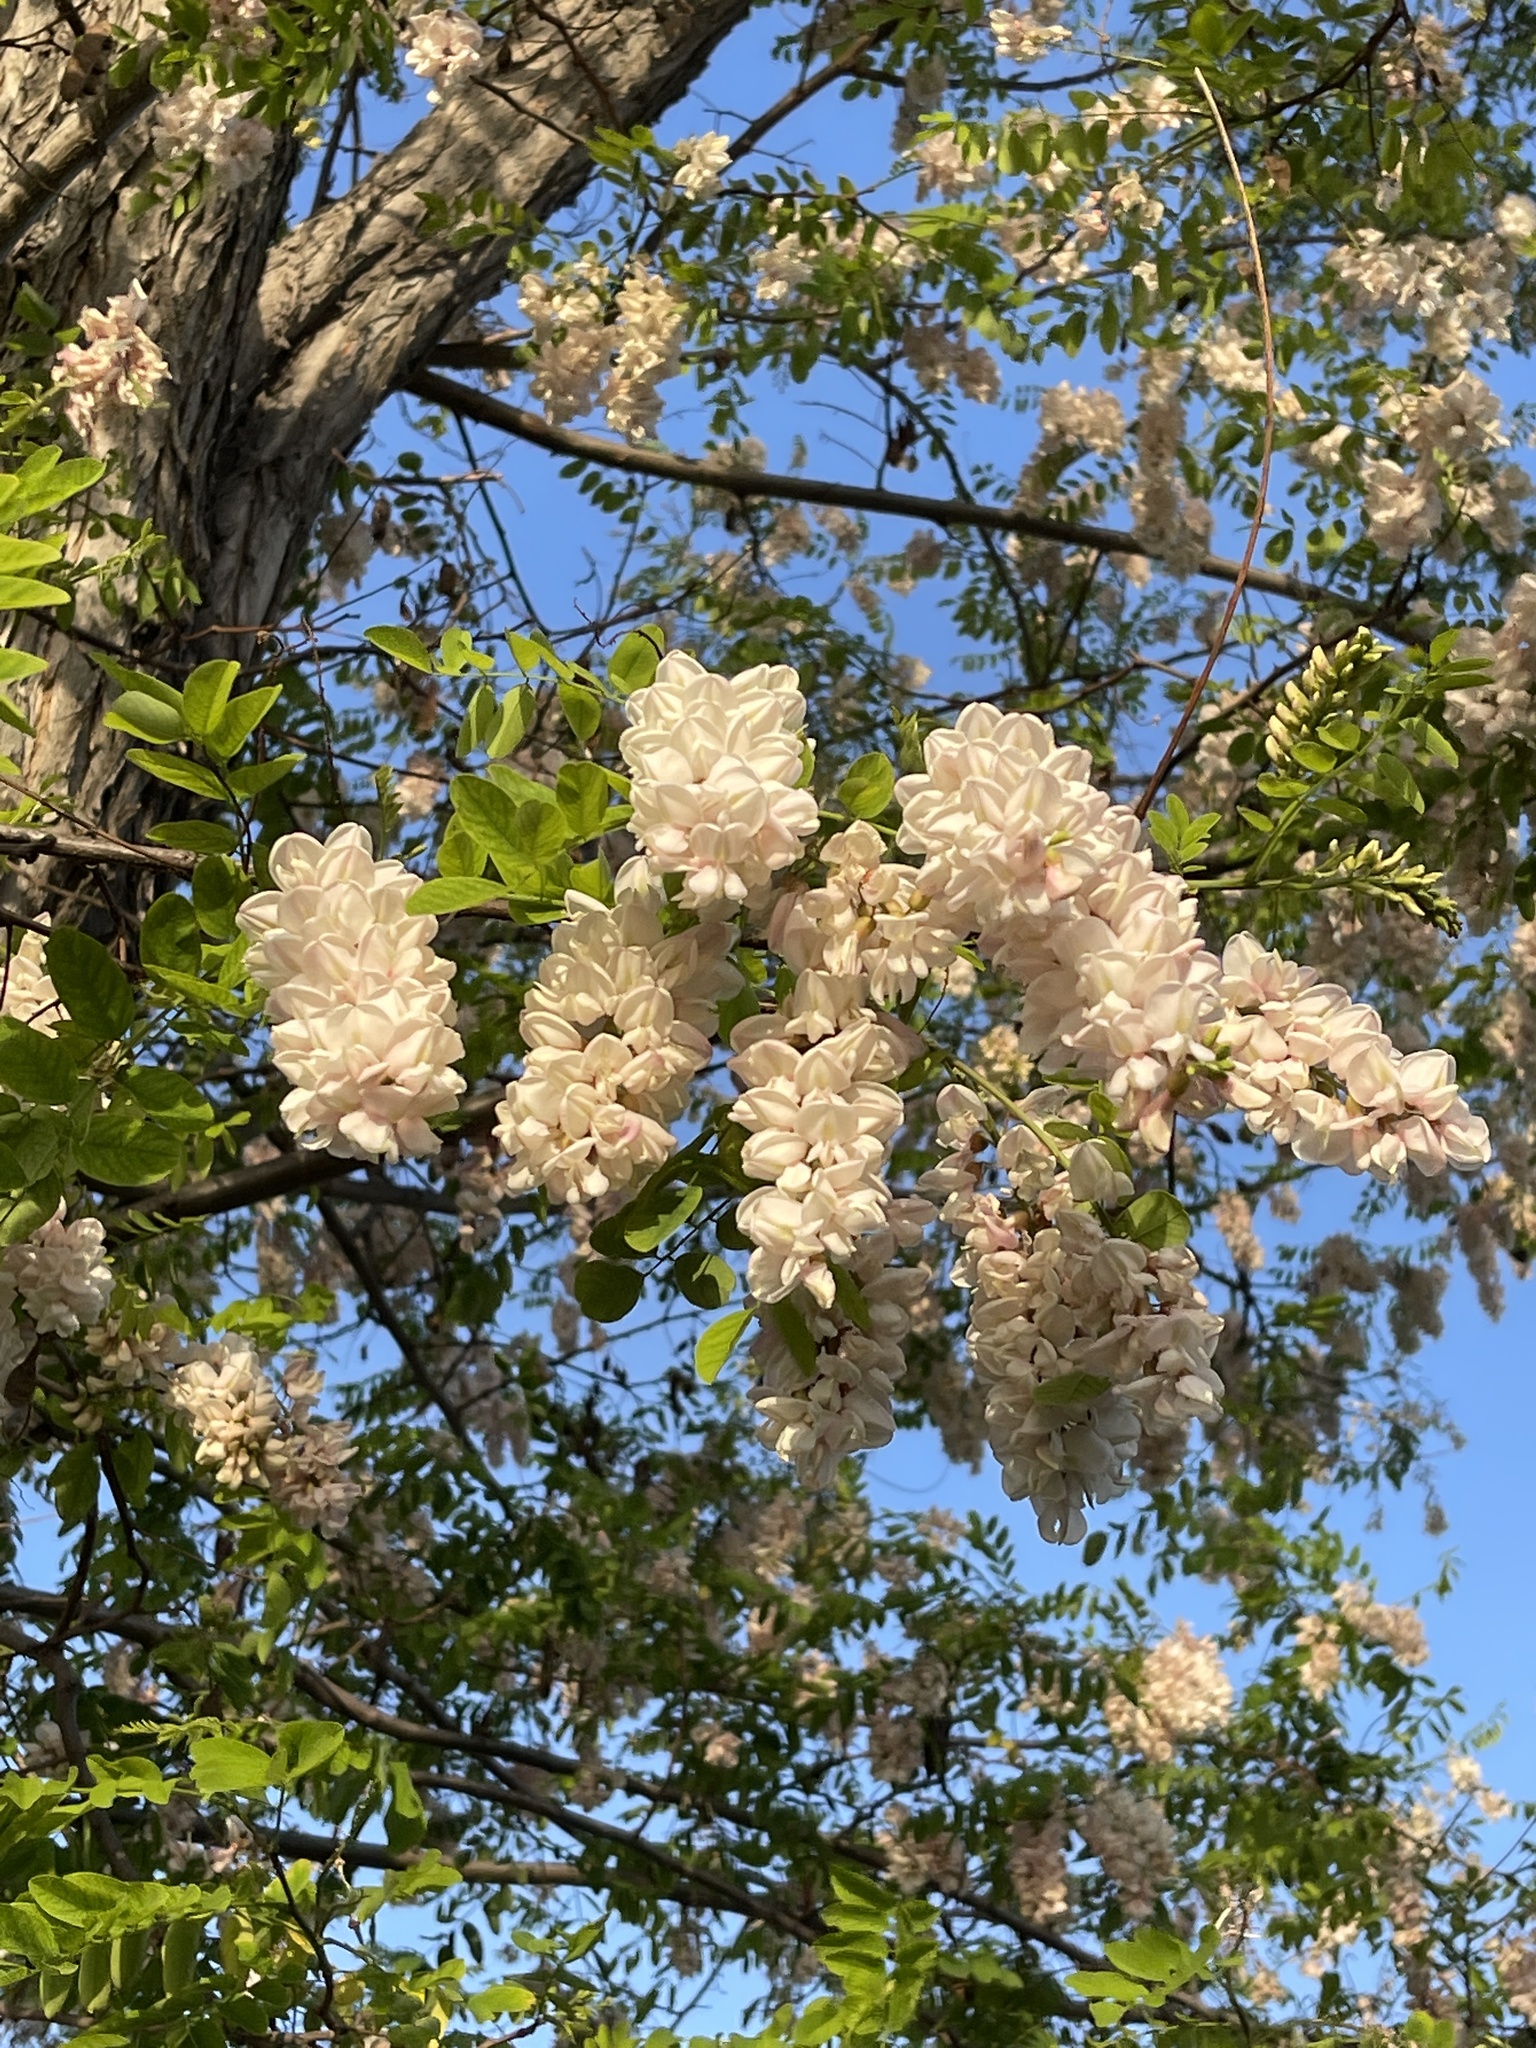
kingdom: Plantae
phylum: Tracheophyta
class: Magnoliopsida
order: Fabales
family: Fabaceae
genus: Robinia
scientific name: Robinia pseudoacacia
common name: Black locust
